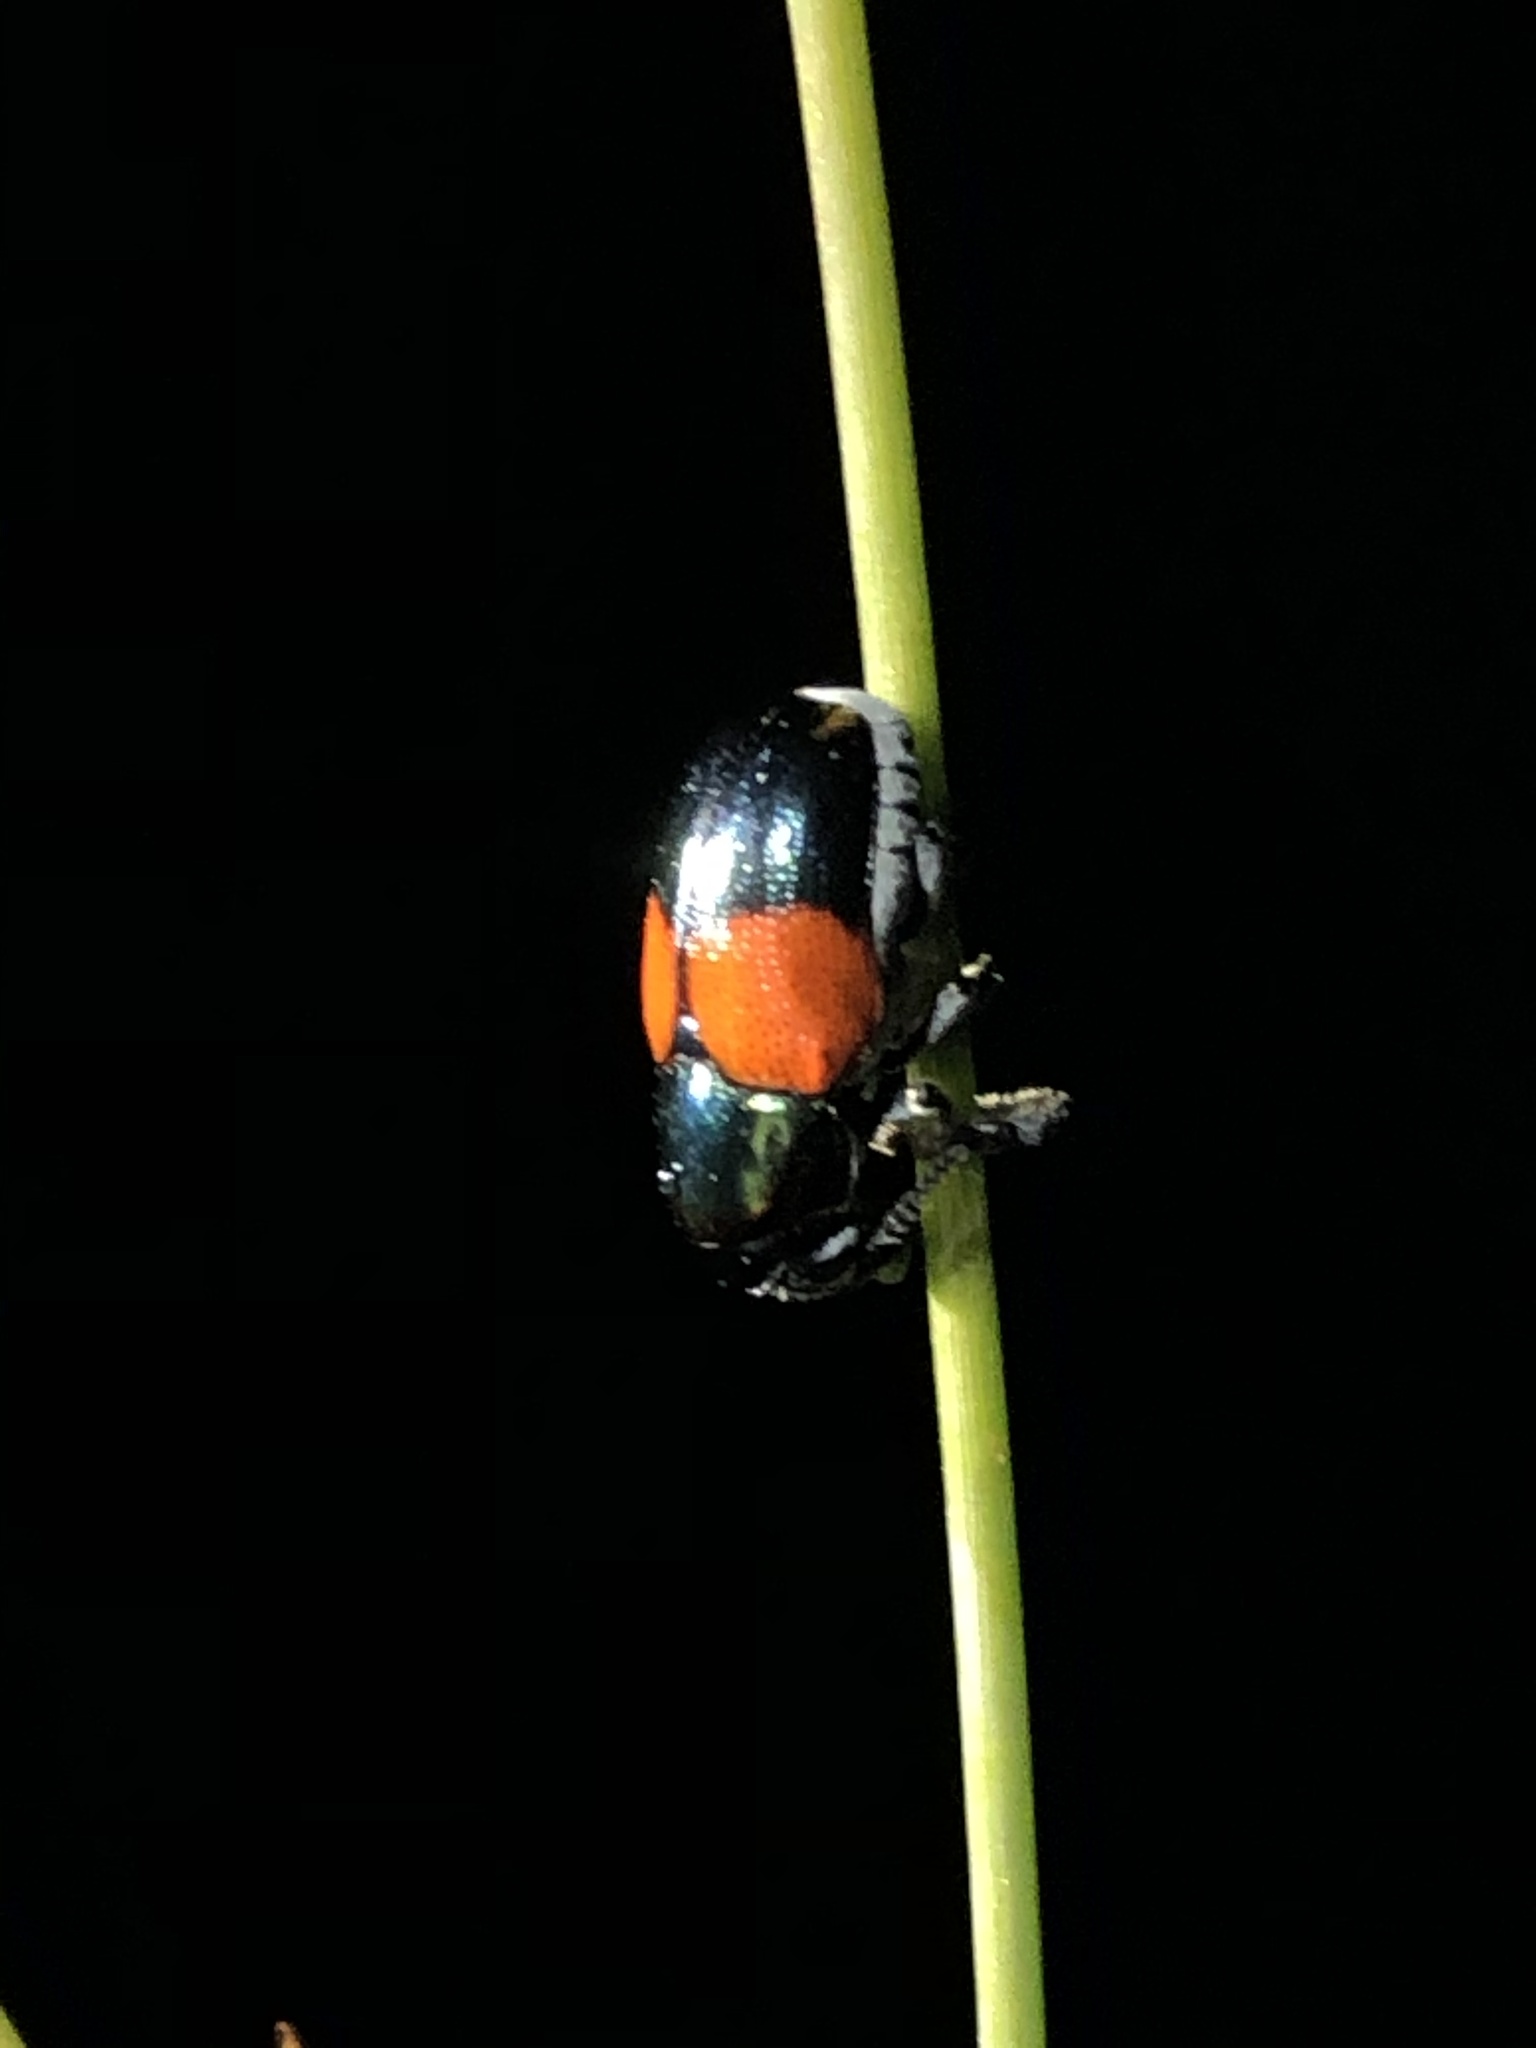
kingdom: Animalia
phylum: Arthropoda
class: Insecta
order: Coleoptera
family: Chrysomelidae
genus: Megalostomis
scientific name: Megalostomis pyropyga
